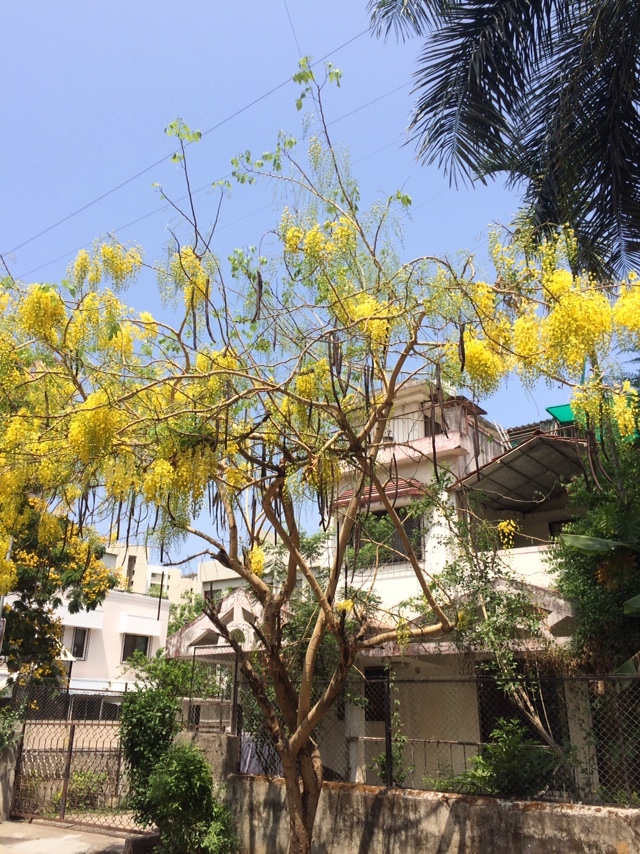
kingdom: Plantae
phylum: Tracheophyta
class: Magnoliopsida
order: Fabales
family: Fabaceae
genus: Cassia
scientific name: Cassia fistula
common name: Golden shower
